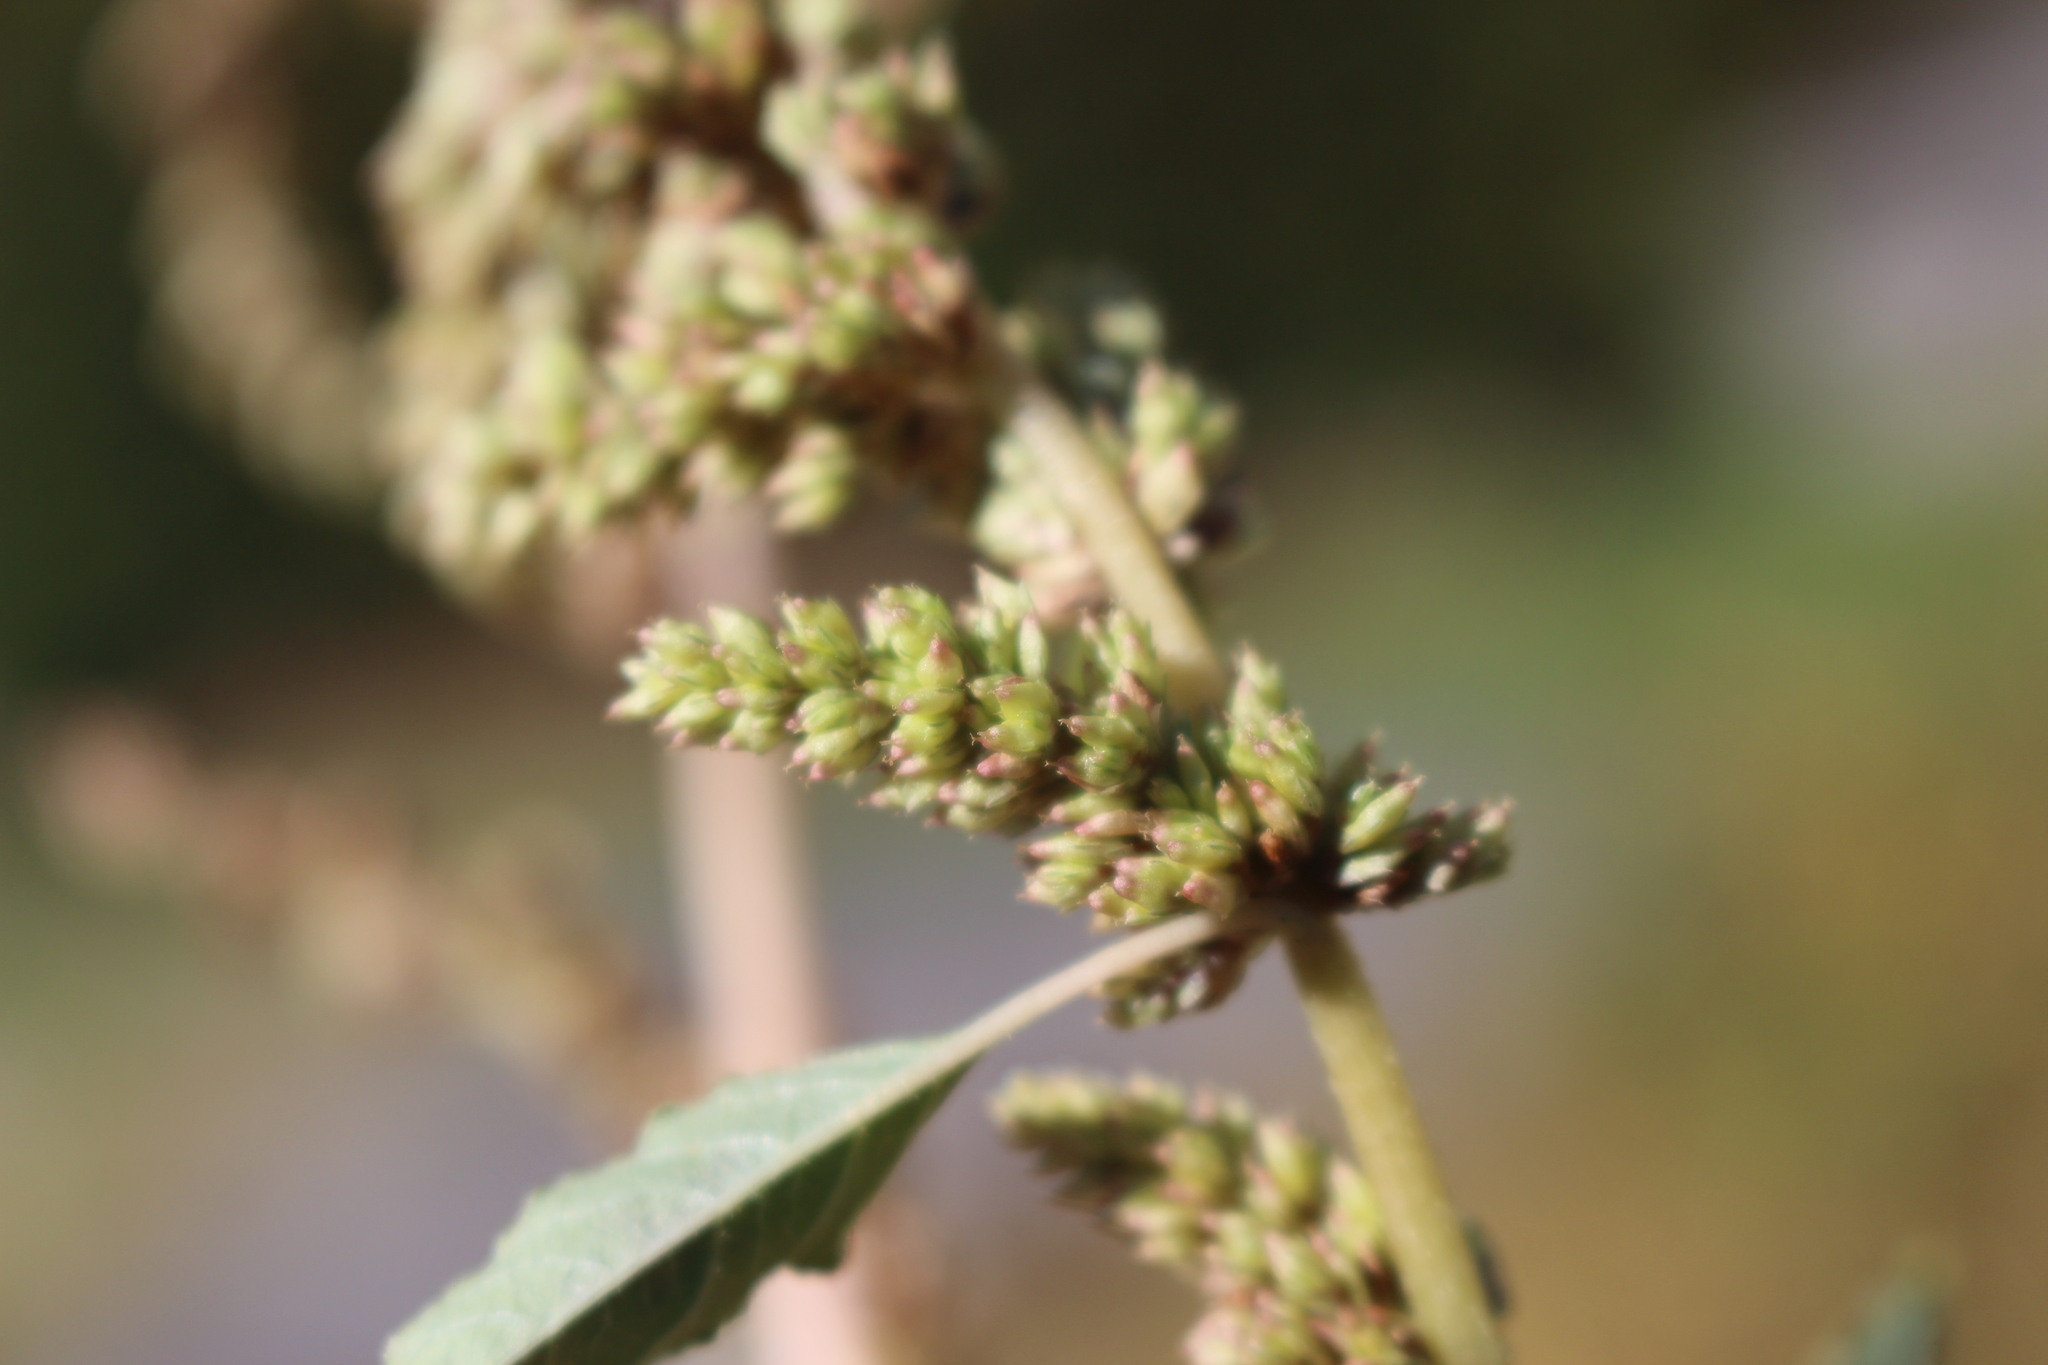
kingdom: Plantae
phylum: Tracheophyta
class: Magnoliopsida
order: Caryophyllales
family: Amaranthaceae
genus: Amaranthus
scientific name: Amaranthus deflexus
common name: Perennial pigweed
